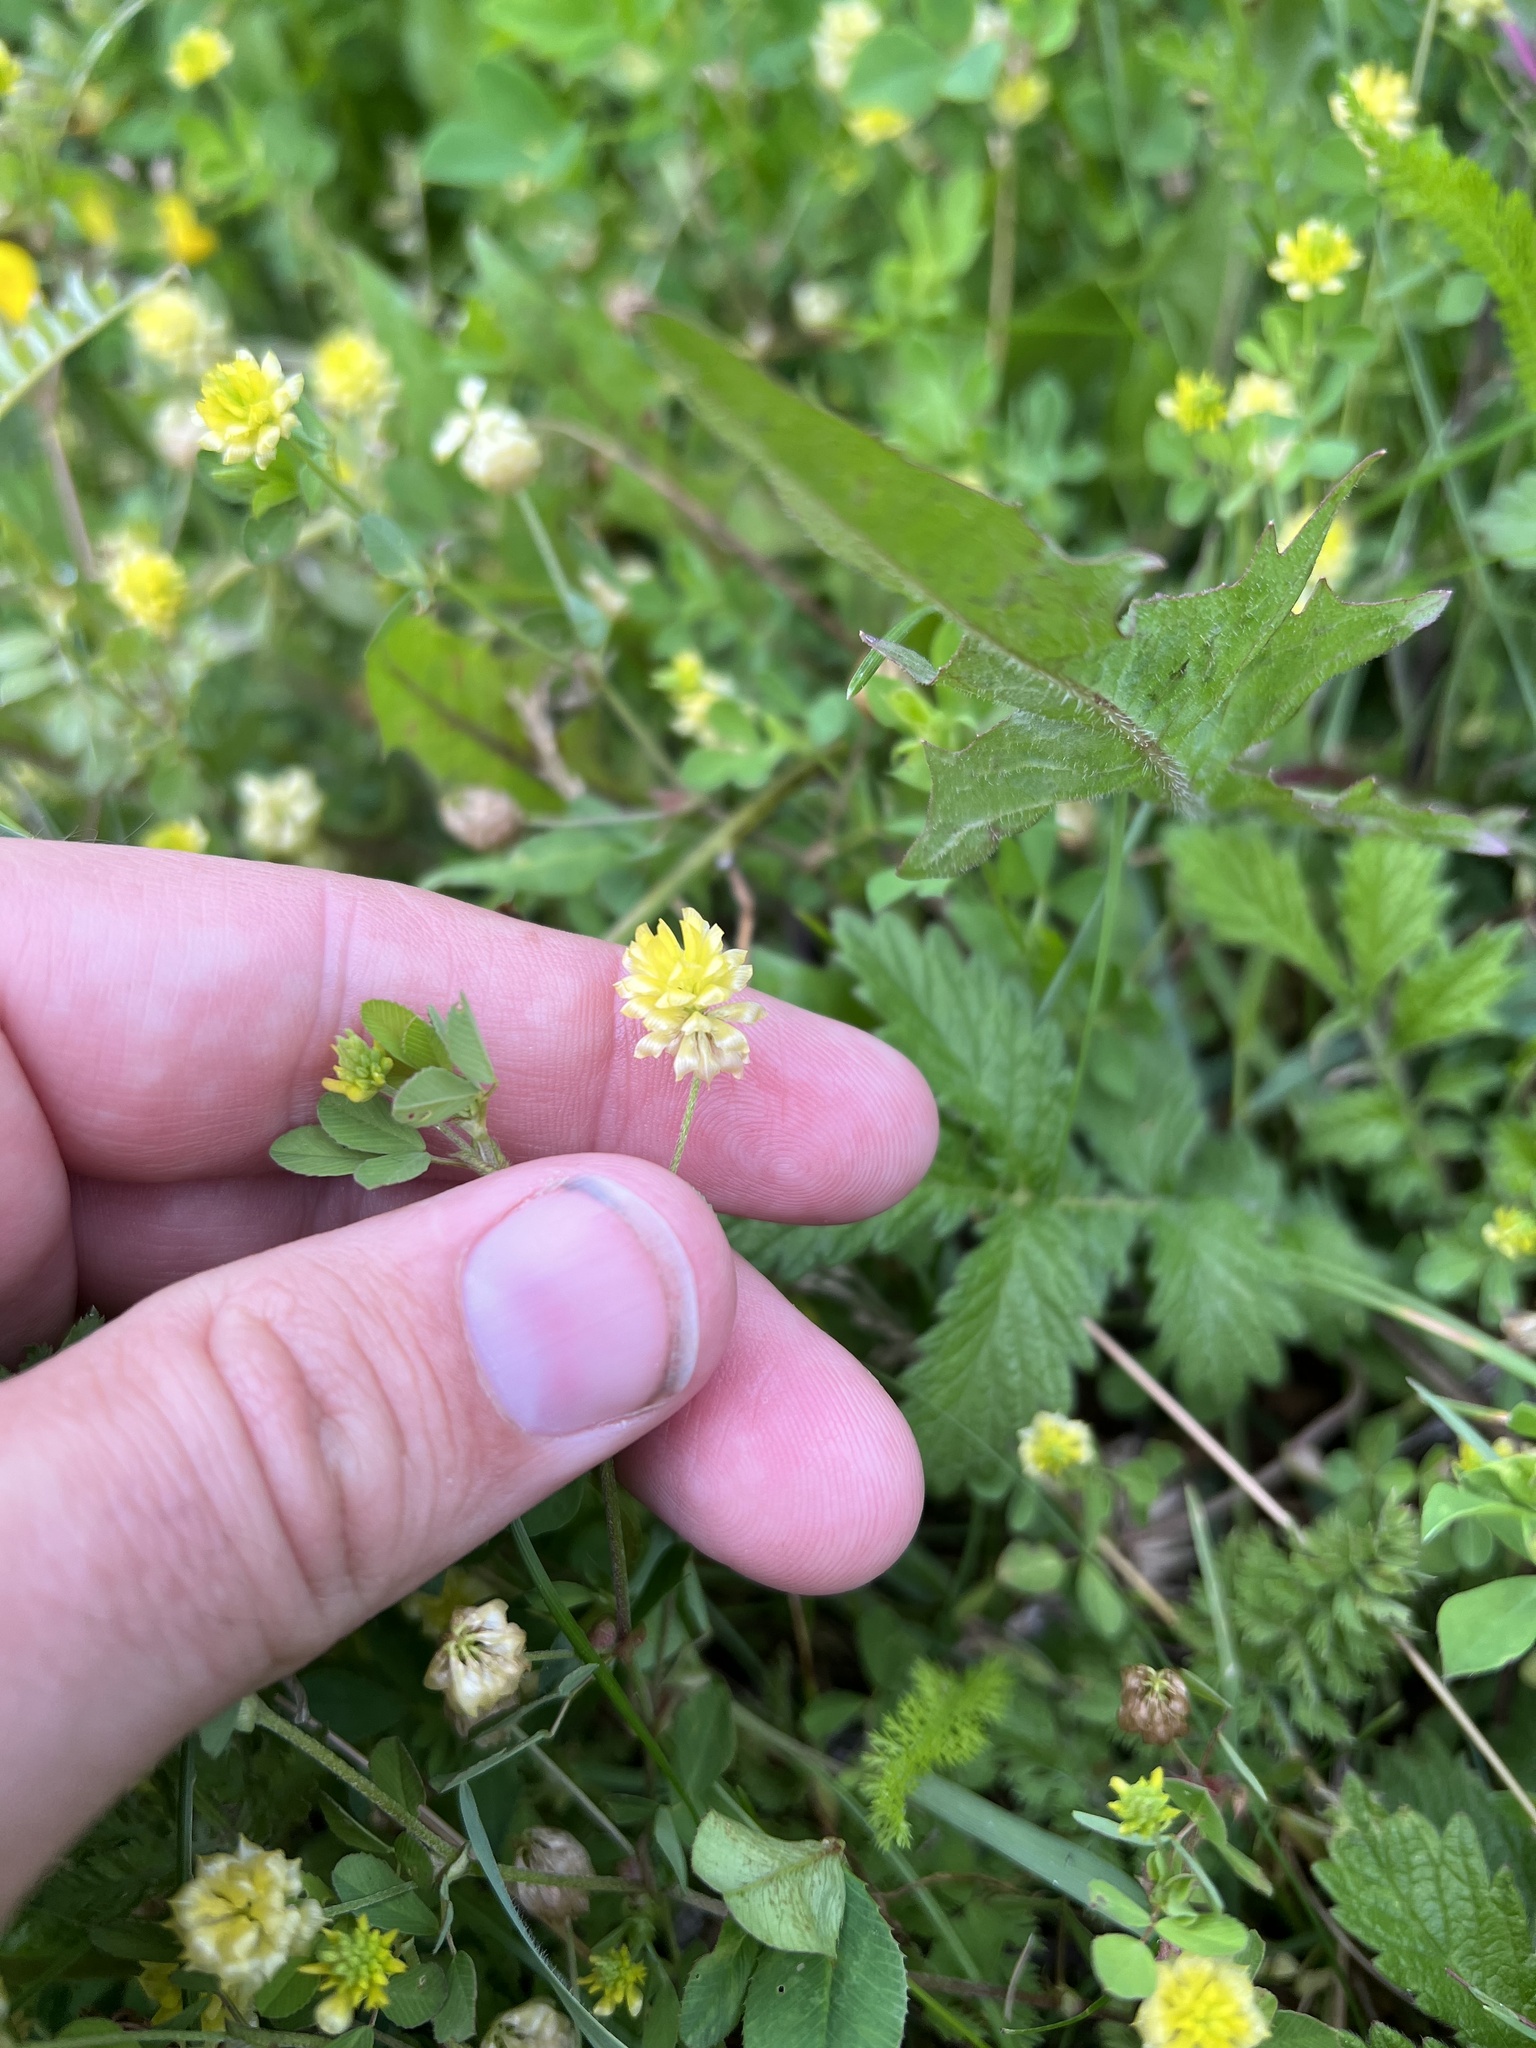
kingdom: Plantae
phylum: Tracheophyta
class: Magnoliopsida
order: Fabales
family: Fabaceae
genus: Trifolium
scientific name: Trifolium campestre
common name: Field clover
